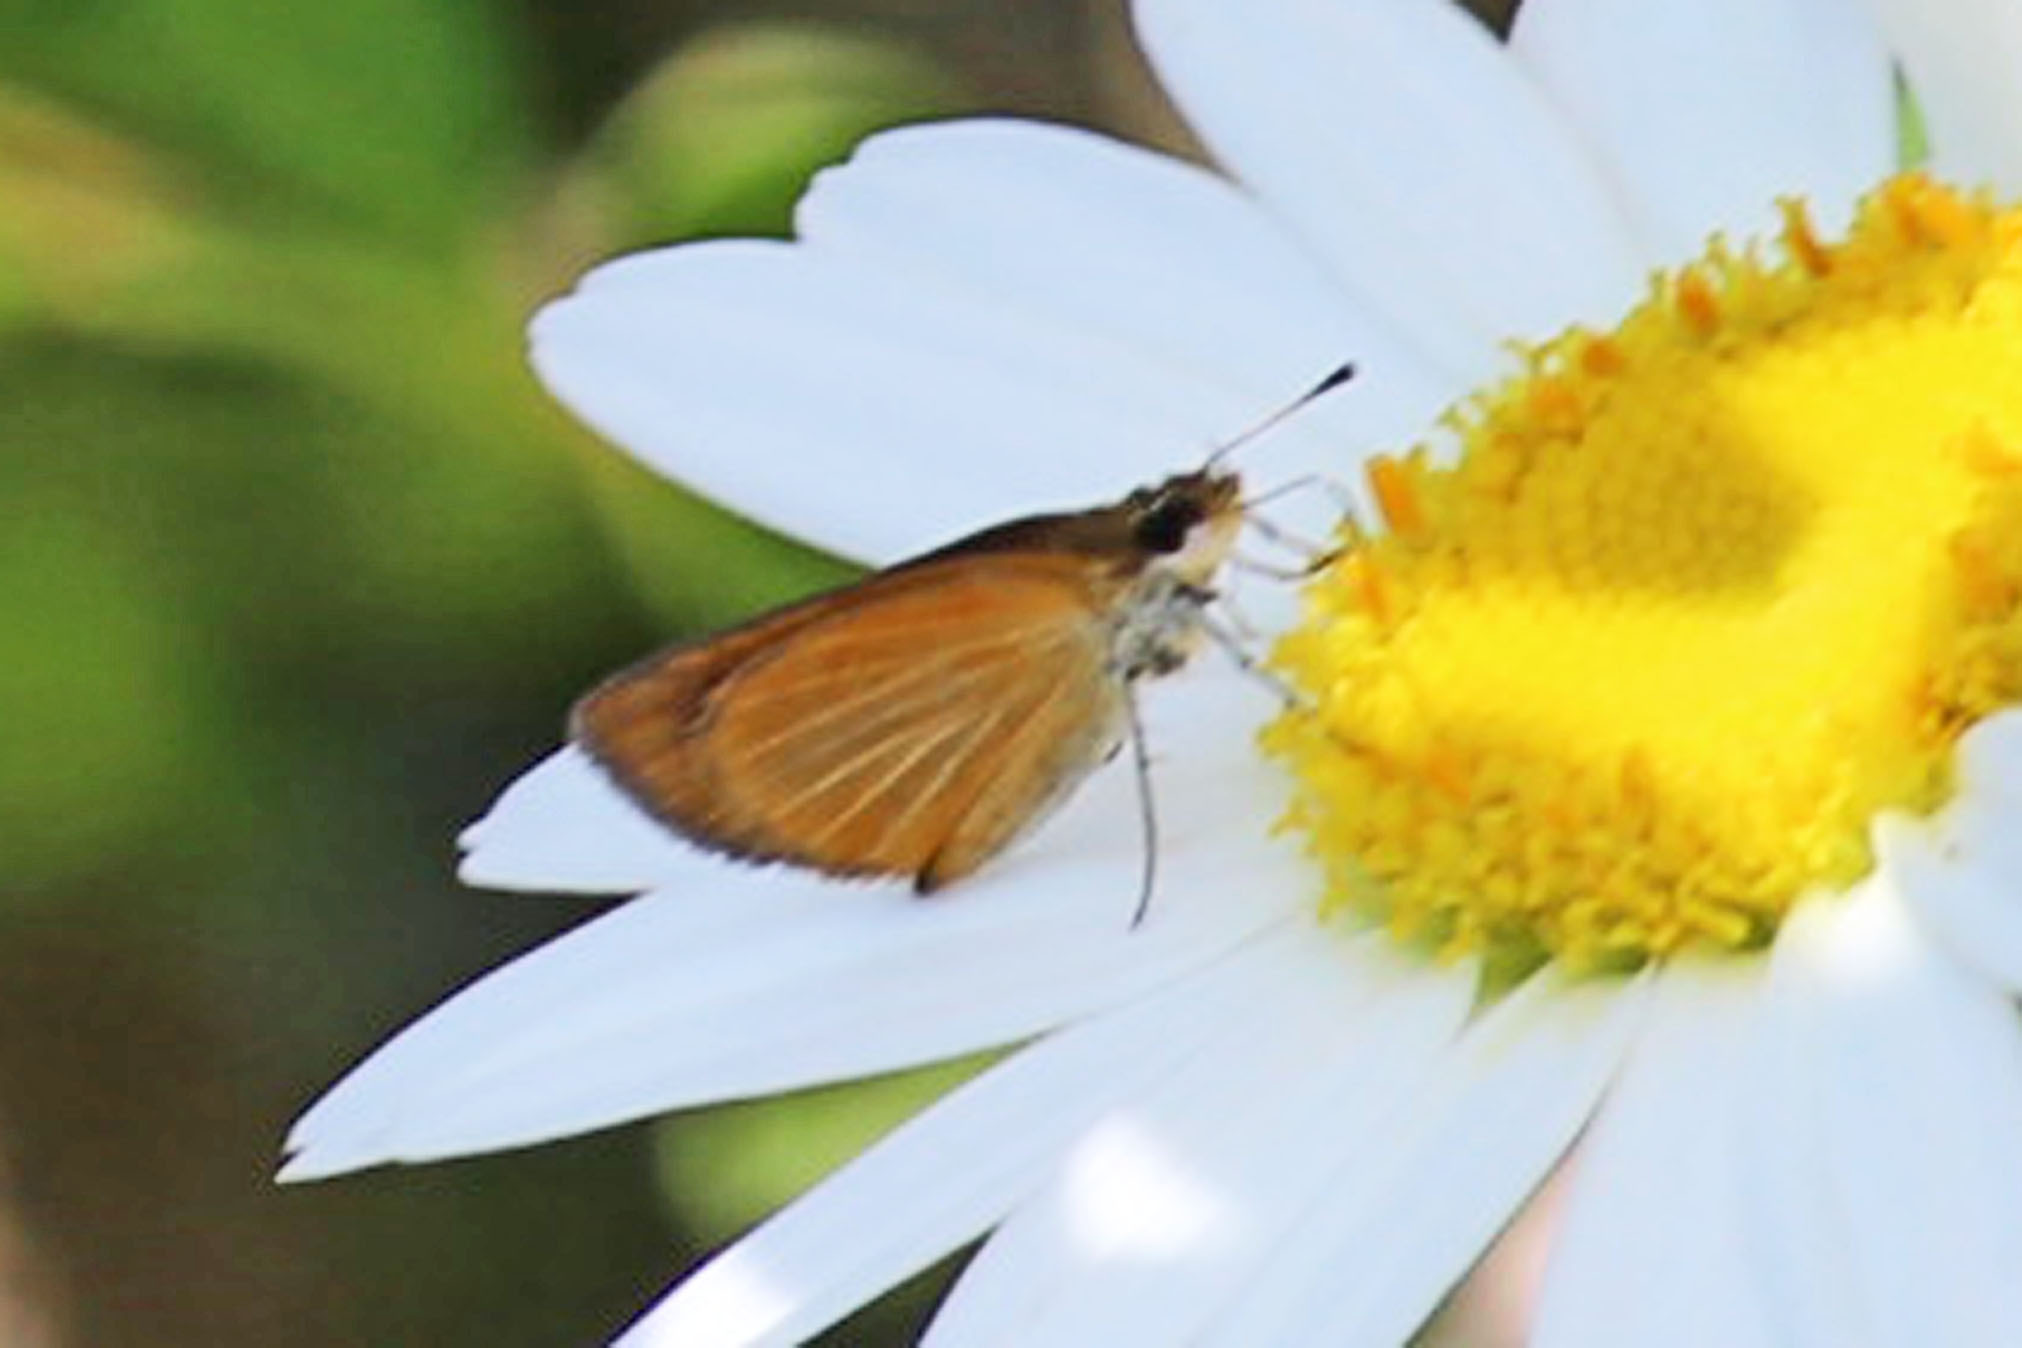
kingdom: Animalia
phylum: Arthropoda
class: Insecta
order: Lepidoptera
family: Hesperiidae
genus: Ancyloxypha
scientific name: Ancyloxypha numitor
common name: Least skipper
